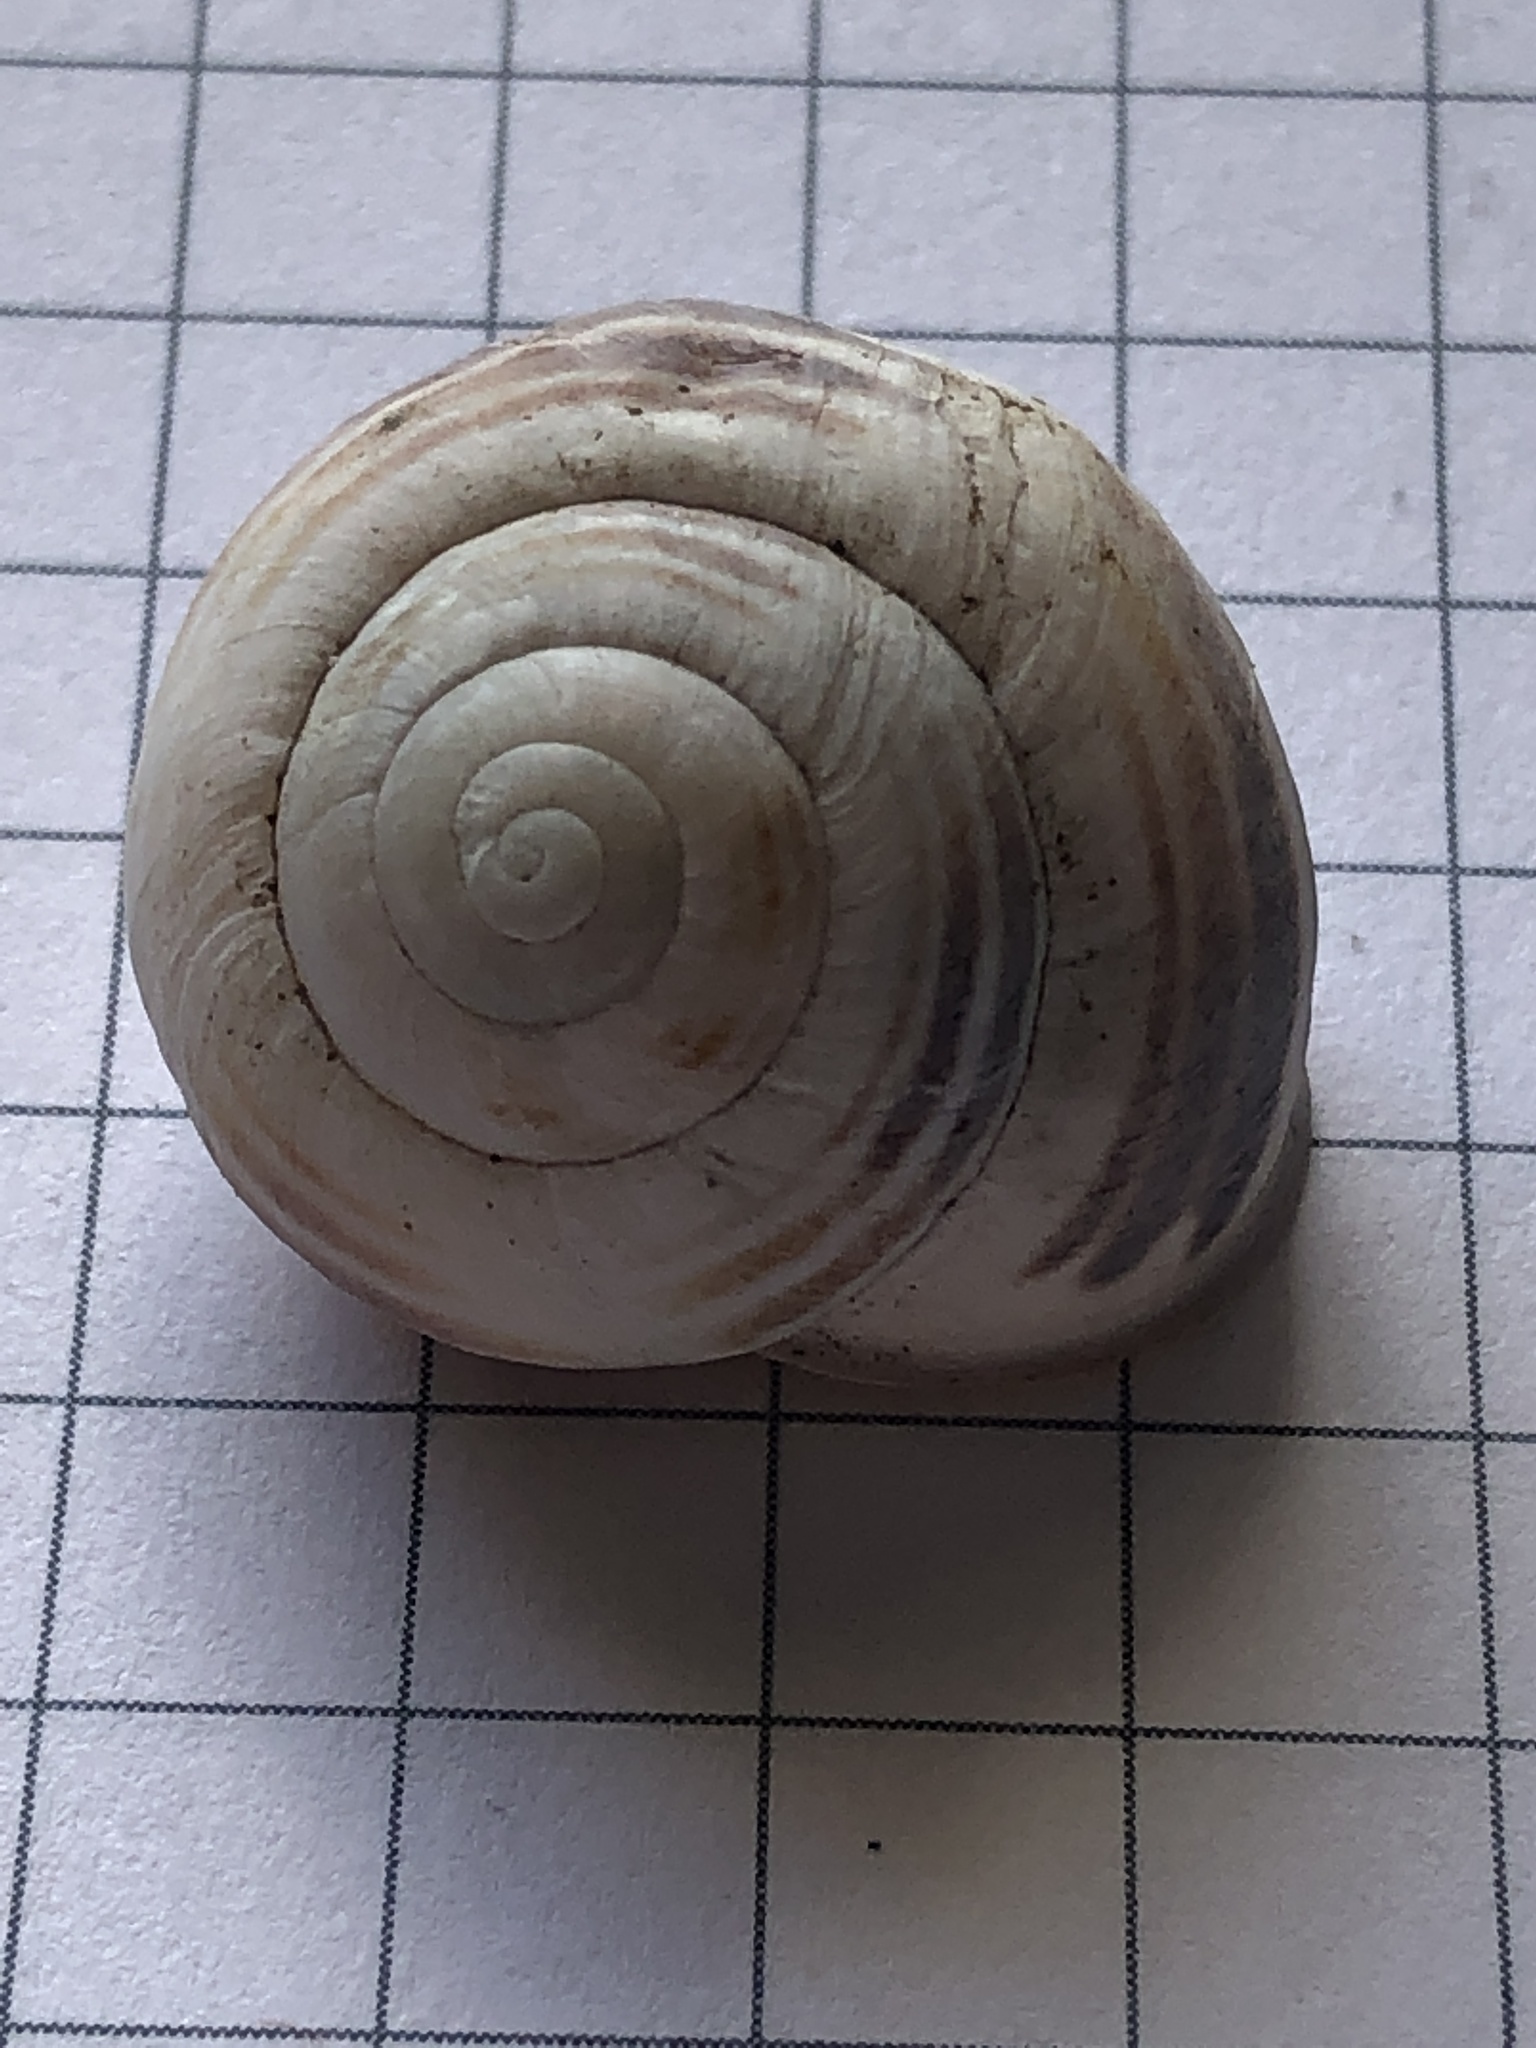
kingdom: Animalia
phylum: Mollusca
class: Gastropoda
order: Stylommatophora
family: Helicidae
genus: Cepaea
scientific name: Cepaea nemoralis
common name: Grovesnail
